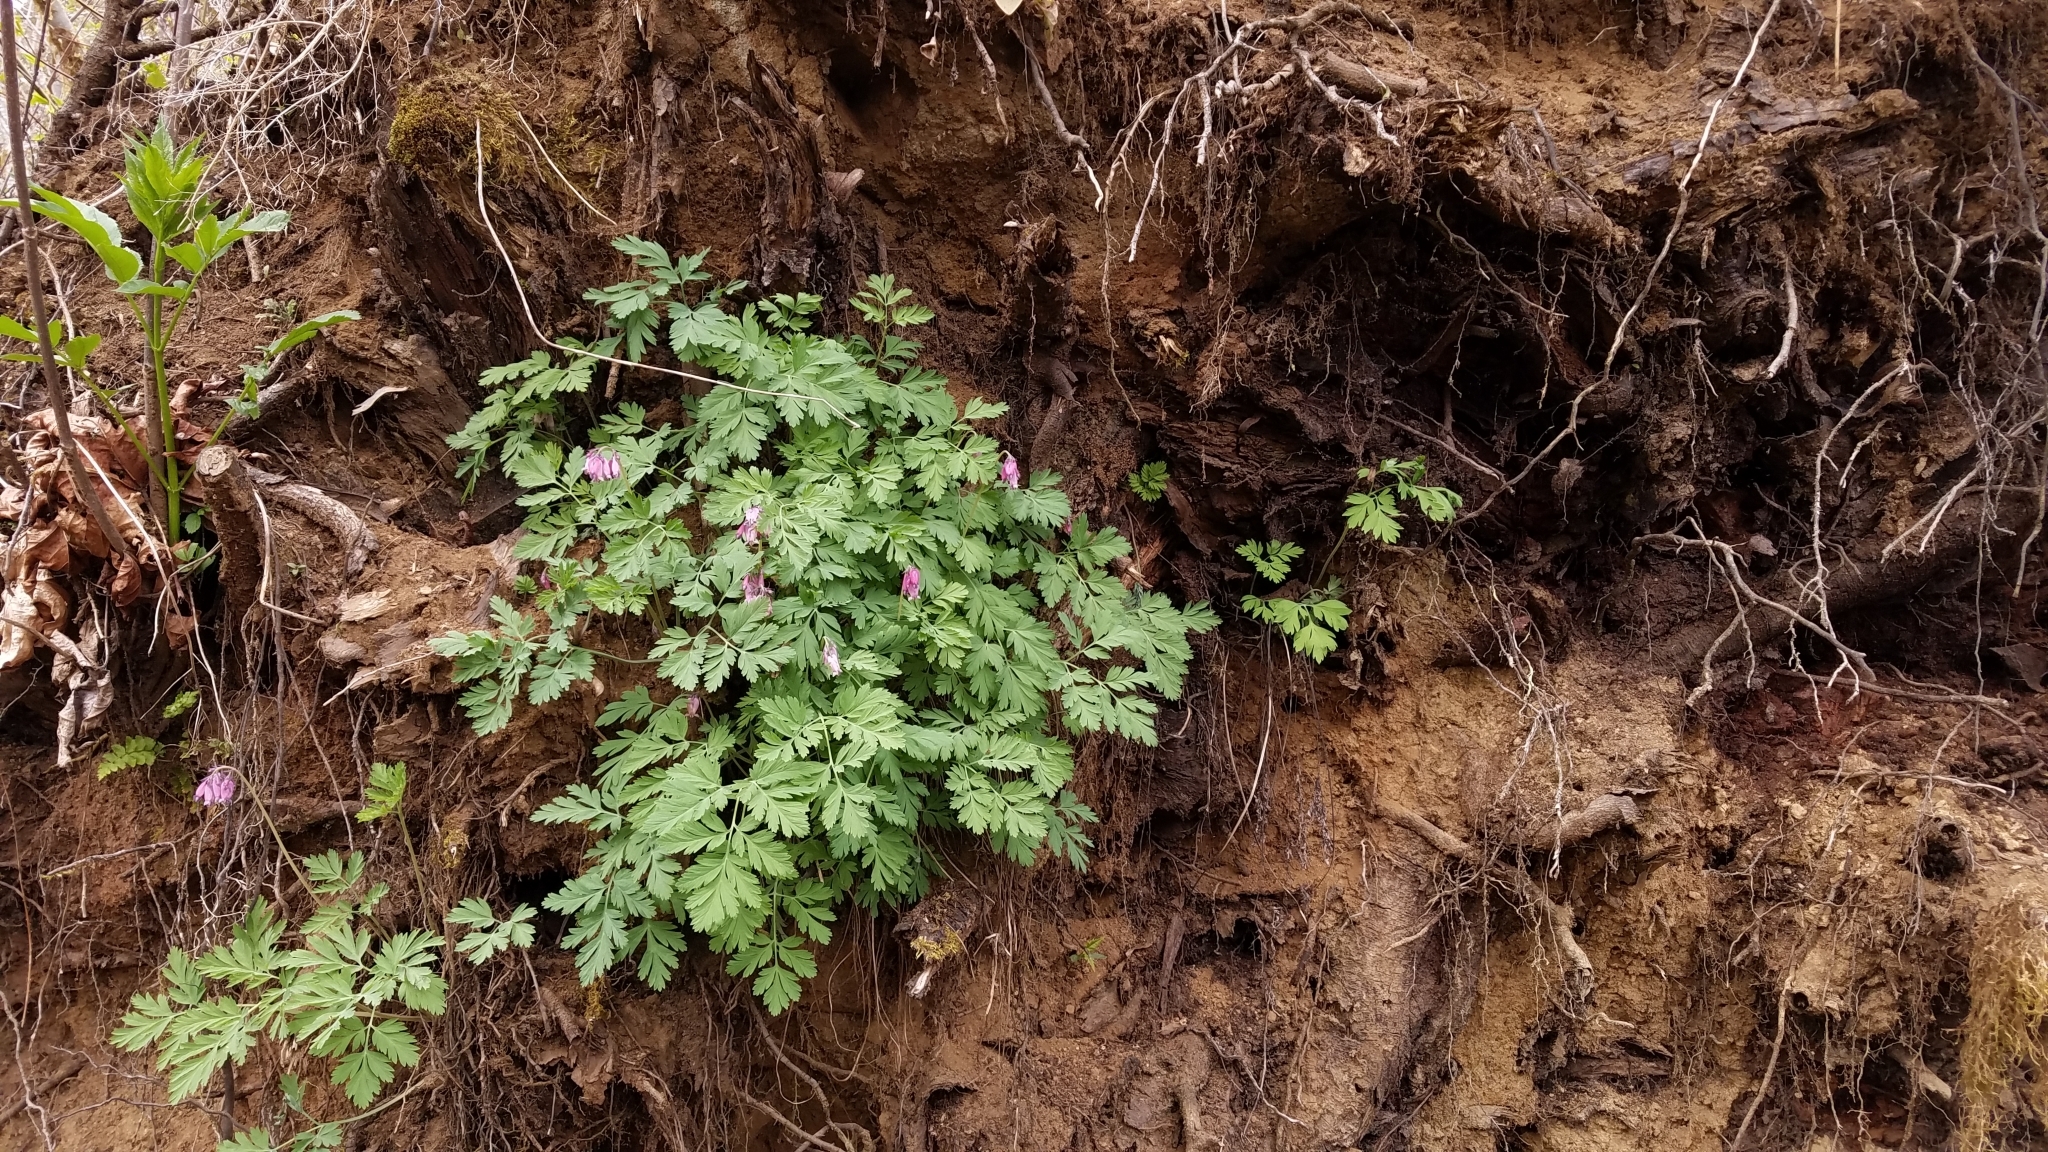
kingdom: Plantae
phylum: Tracheophyta
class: Magnoliopsida
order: Ranunculales
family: Papaveraceae
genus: Dicentra
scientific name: Dicentra formosa
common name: Bleeding-heart
